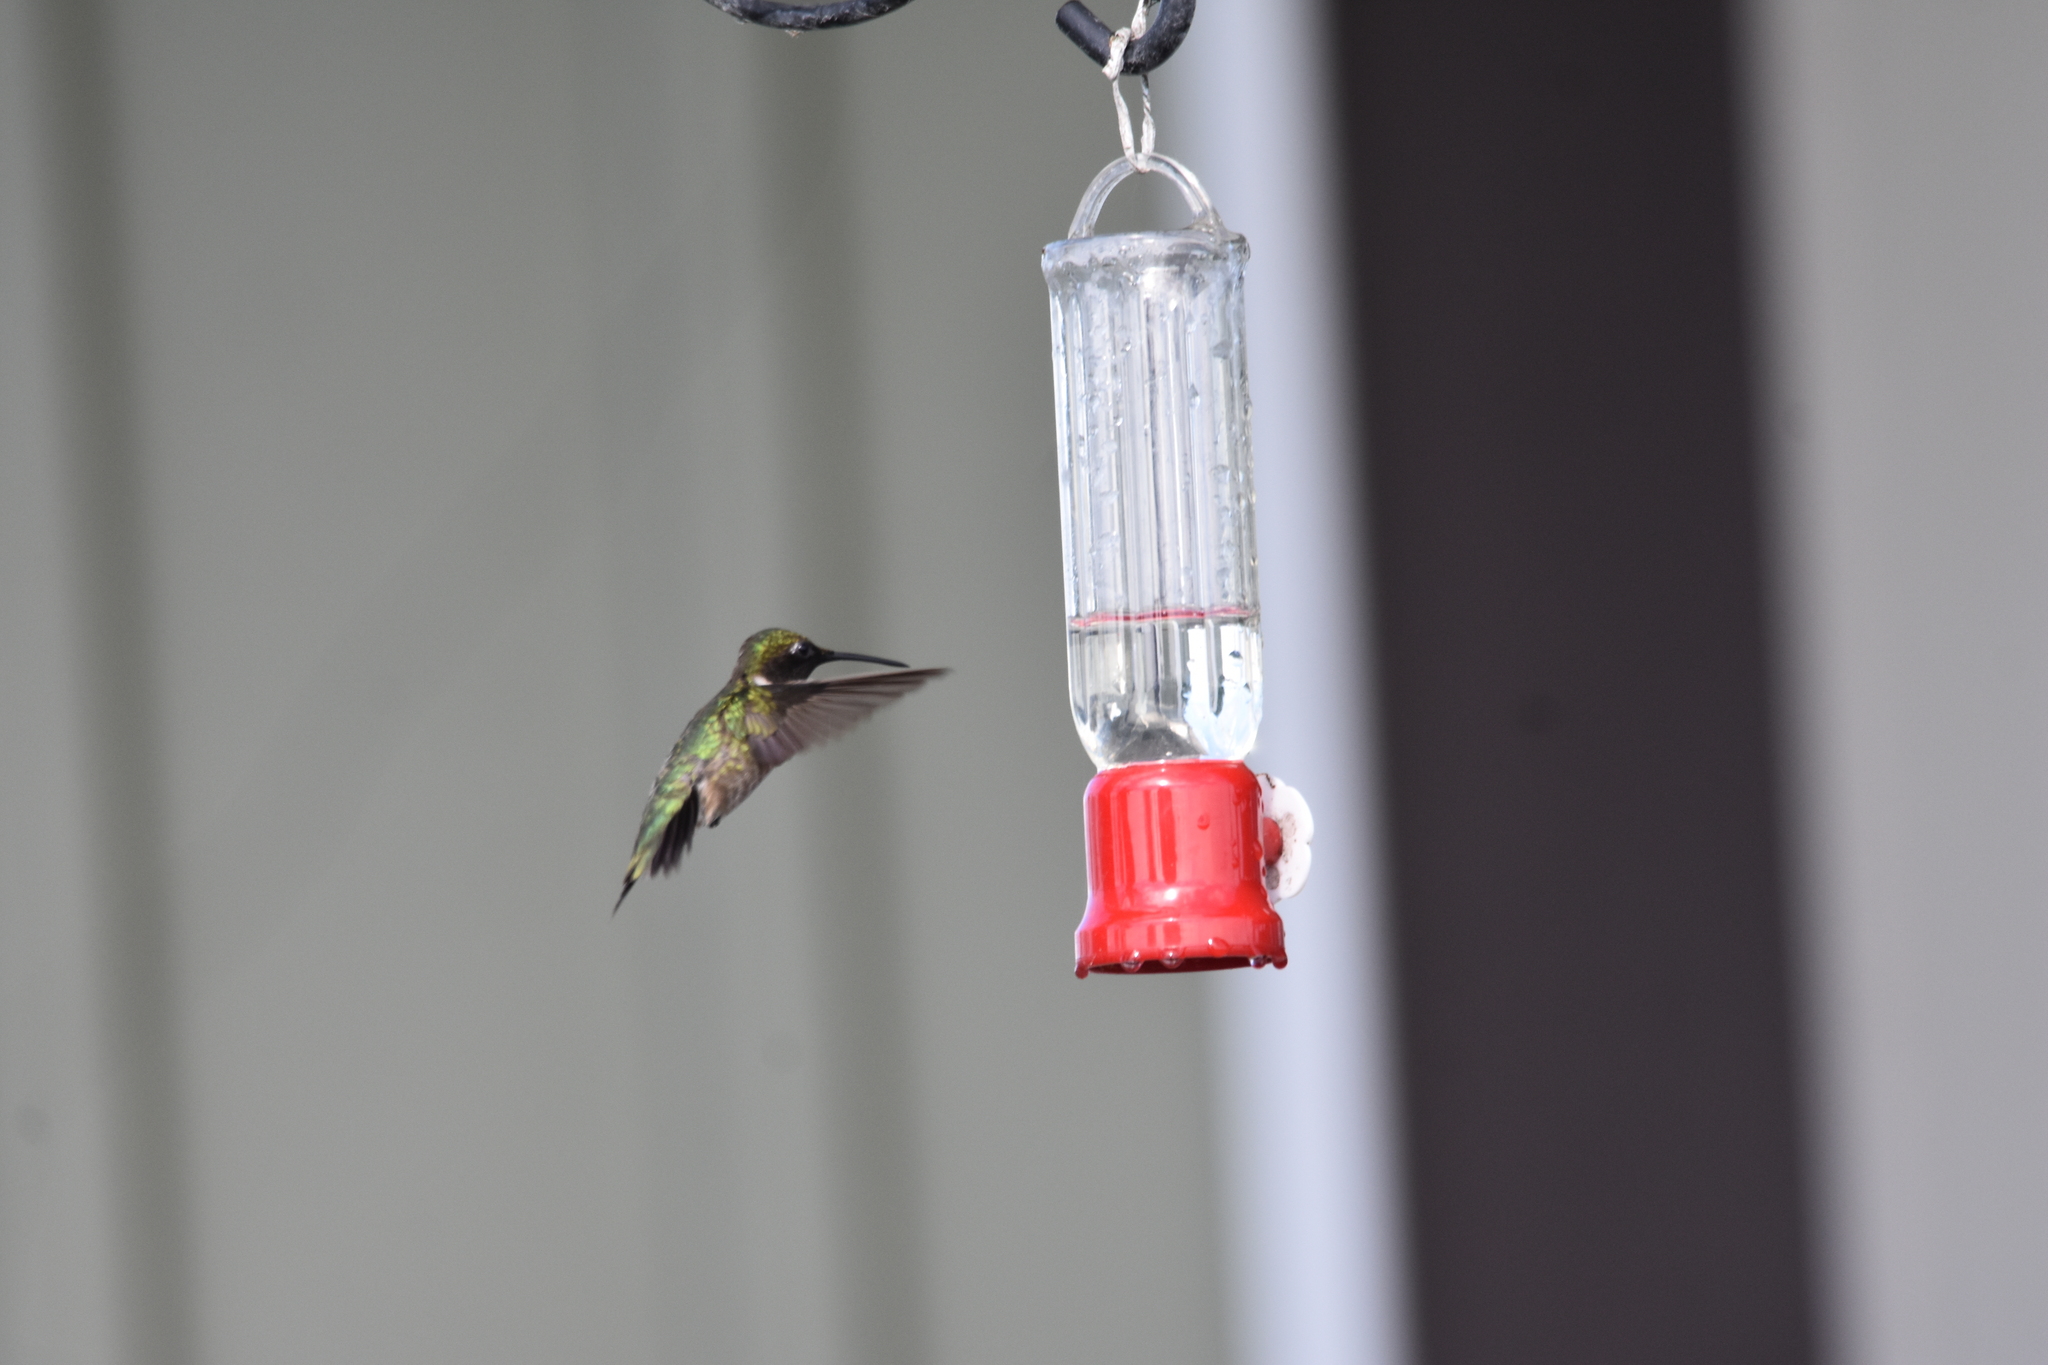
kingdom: Animalia
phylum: Chordata
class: Aves
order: Apodiformes
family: Trochilidae
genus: Archilochus
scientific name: Archilochus colubris
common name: Ruby-throated hummingbird
